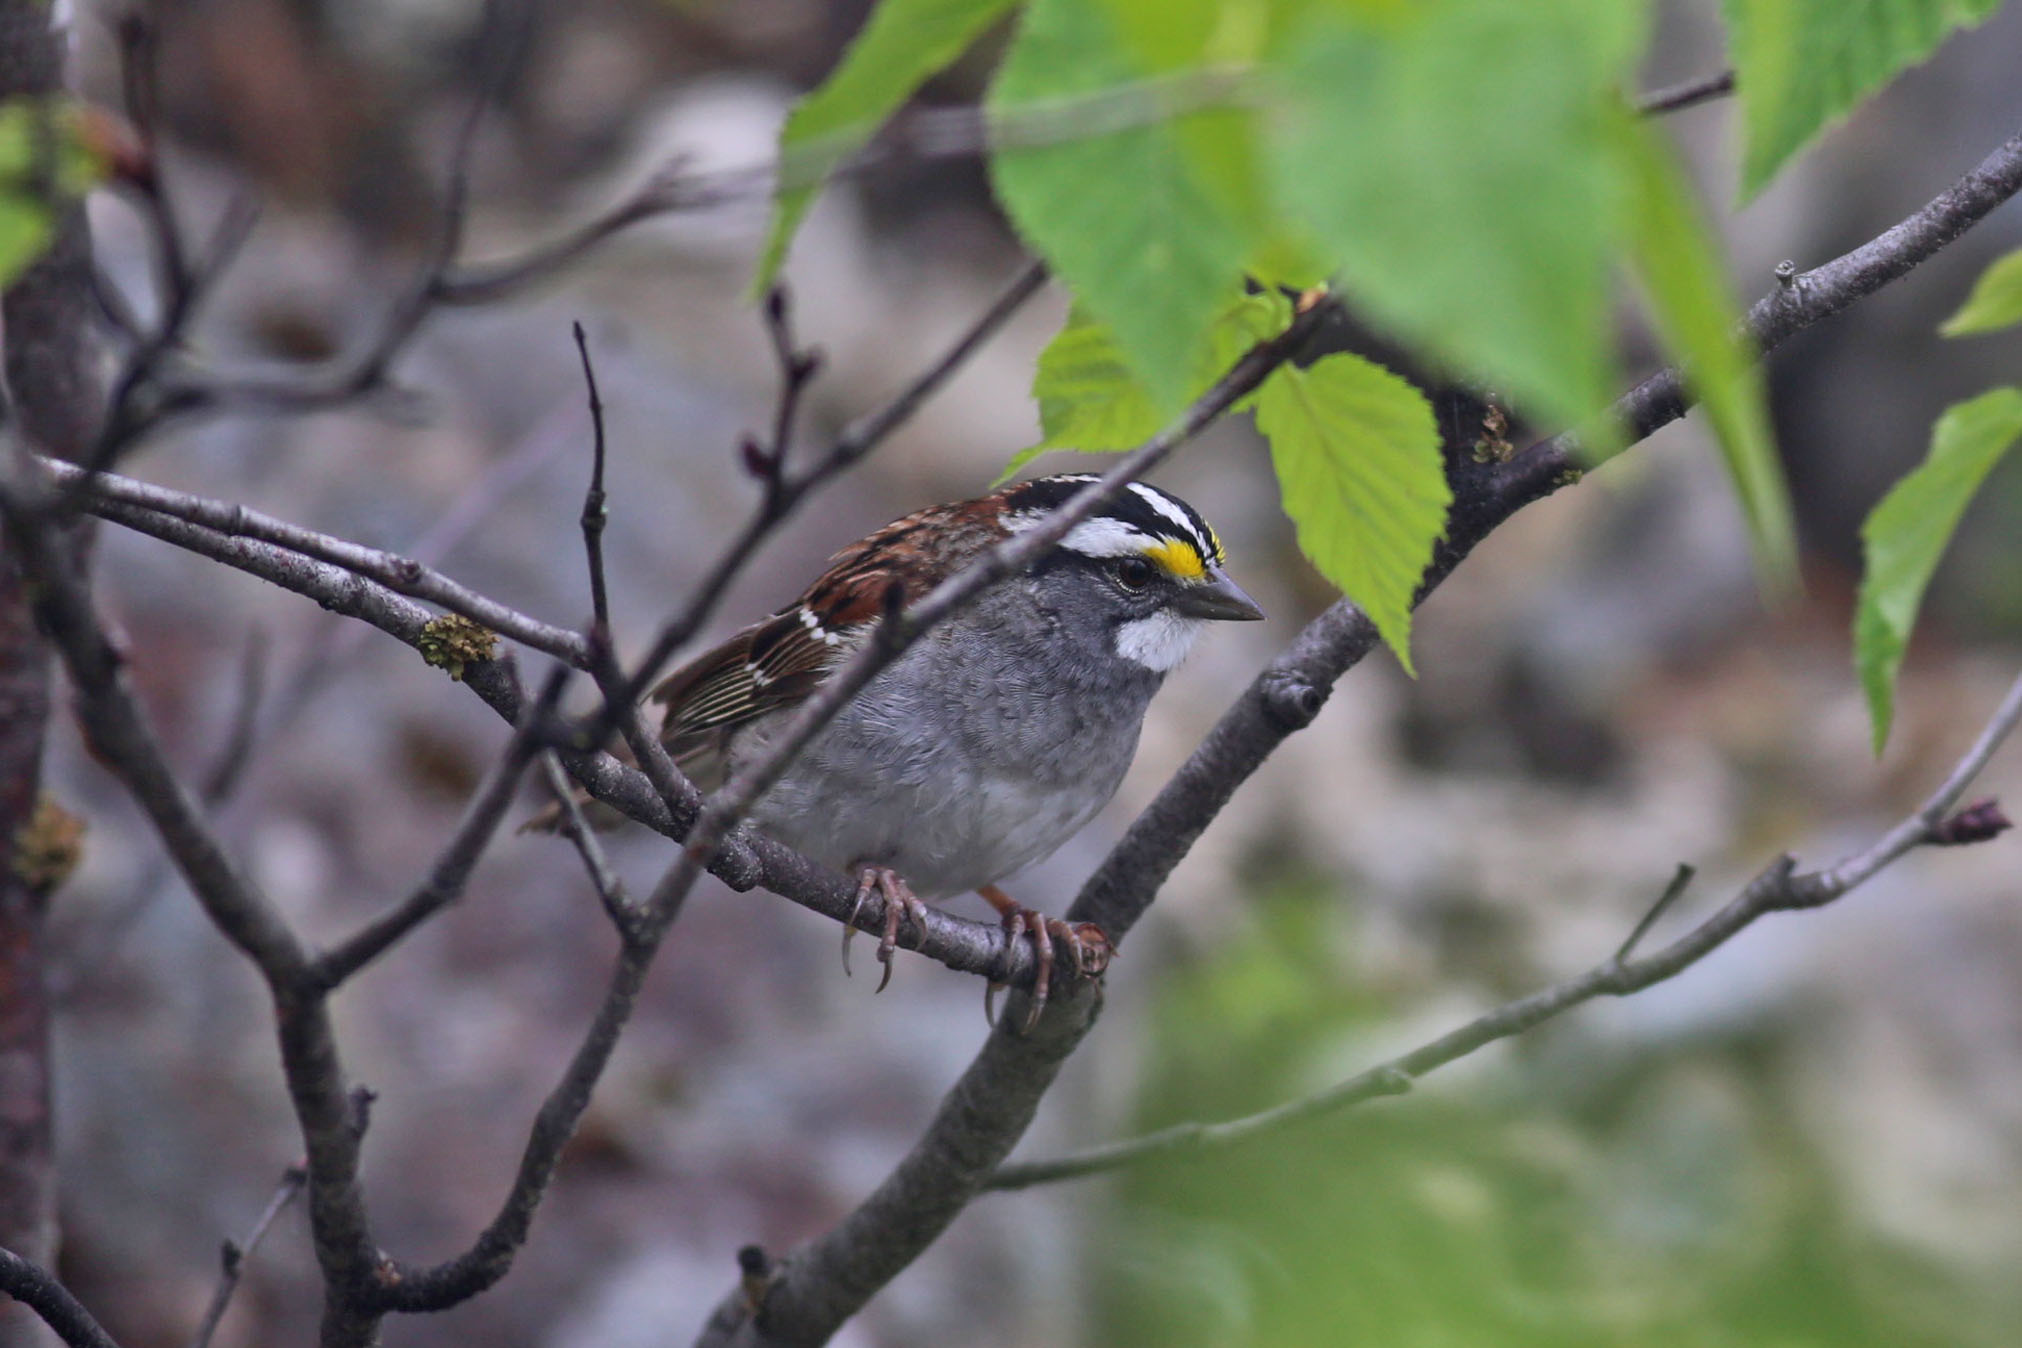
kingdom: Animalia
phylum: Chordata
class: Aves
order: Passeriformes
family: Passerellidae
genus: Zonotrichia
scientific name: Zonotrichia albicollis
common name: White-throated sparrow
